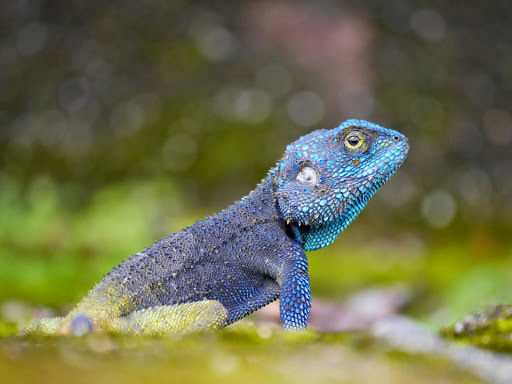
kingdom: Animalia
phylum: Chordata
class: Squamata
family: Agamidae
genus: Acanthocercus
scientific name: Acanthocercus
